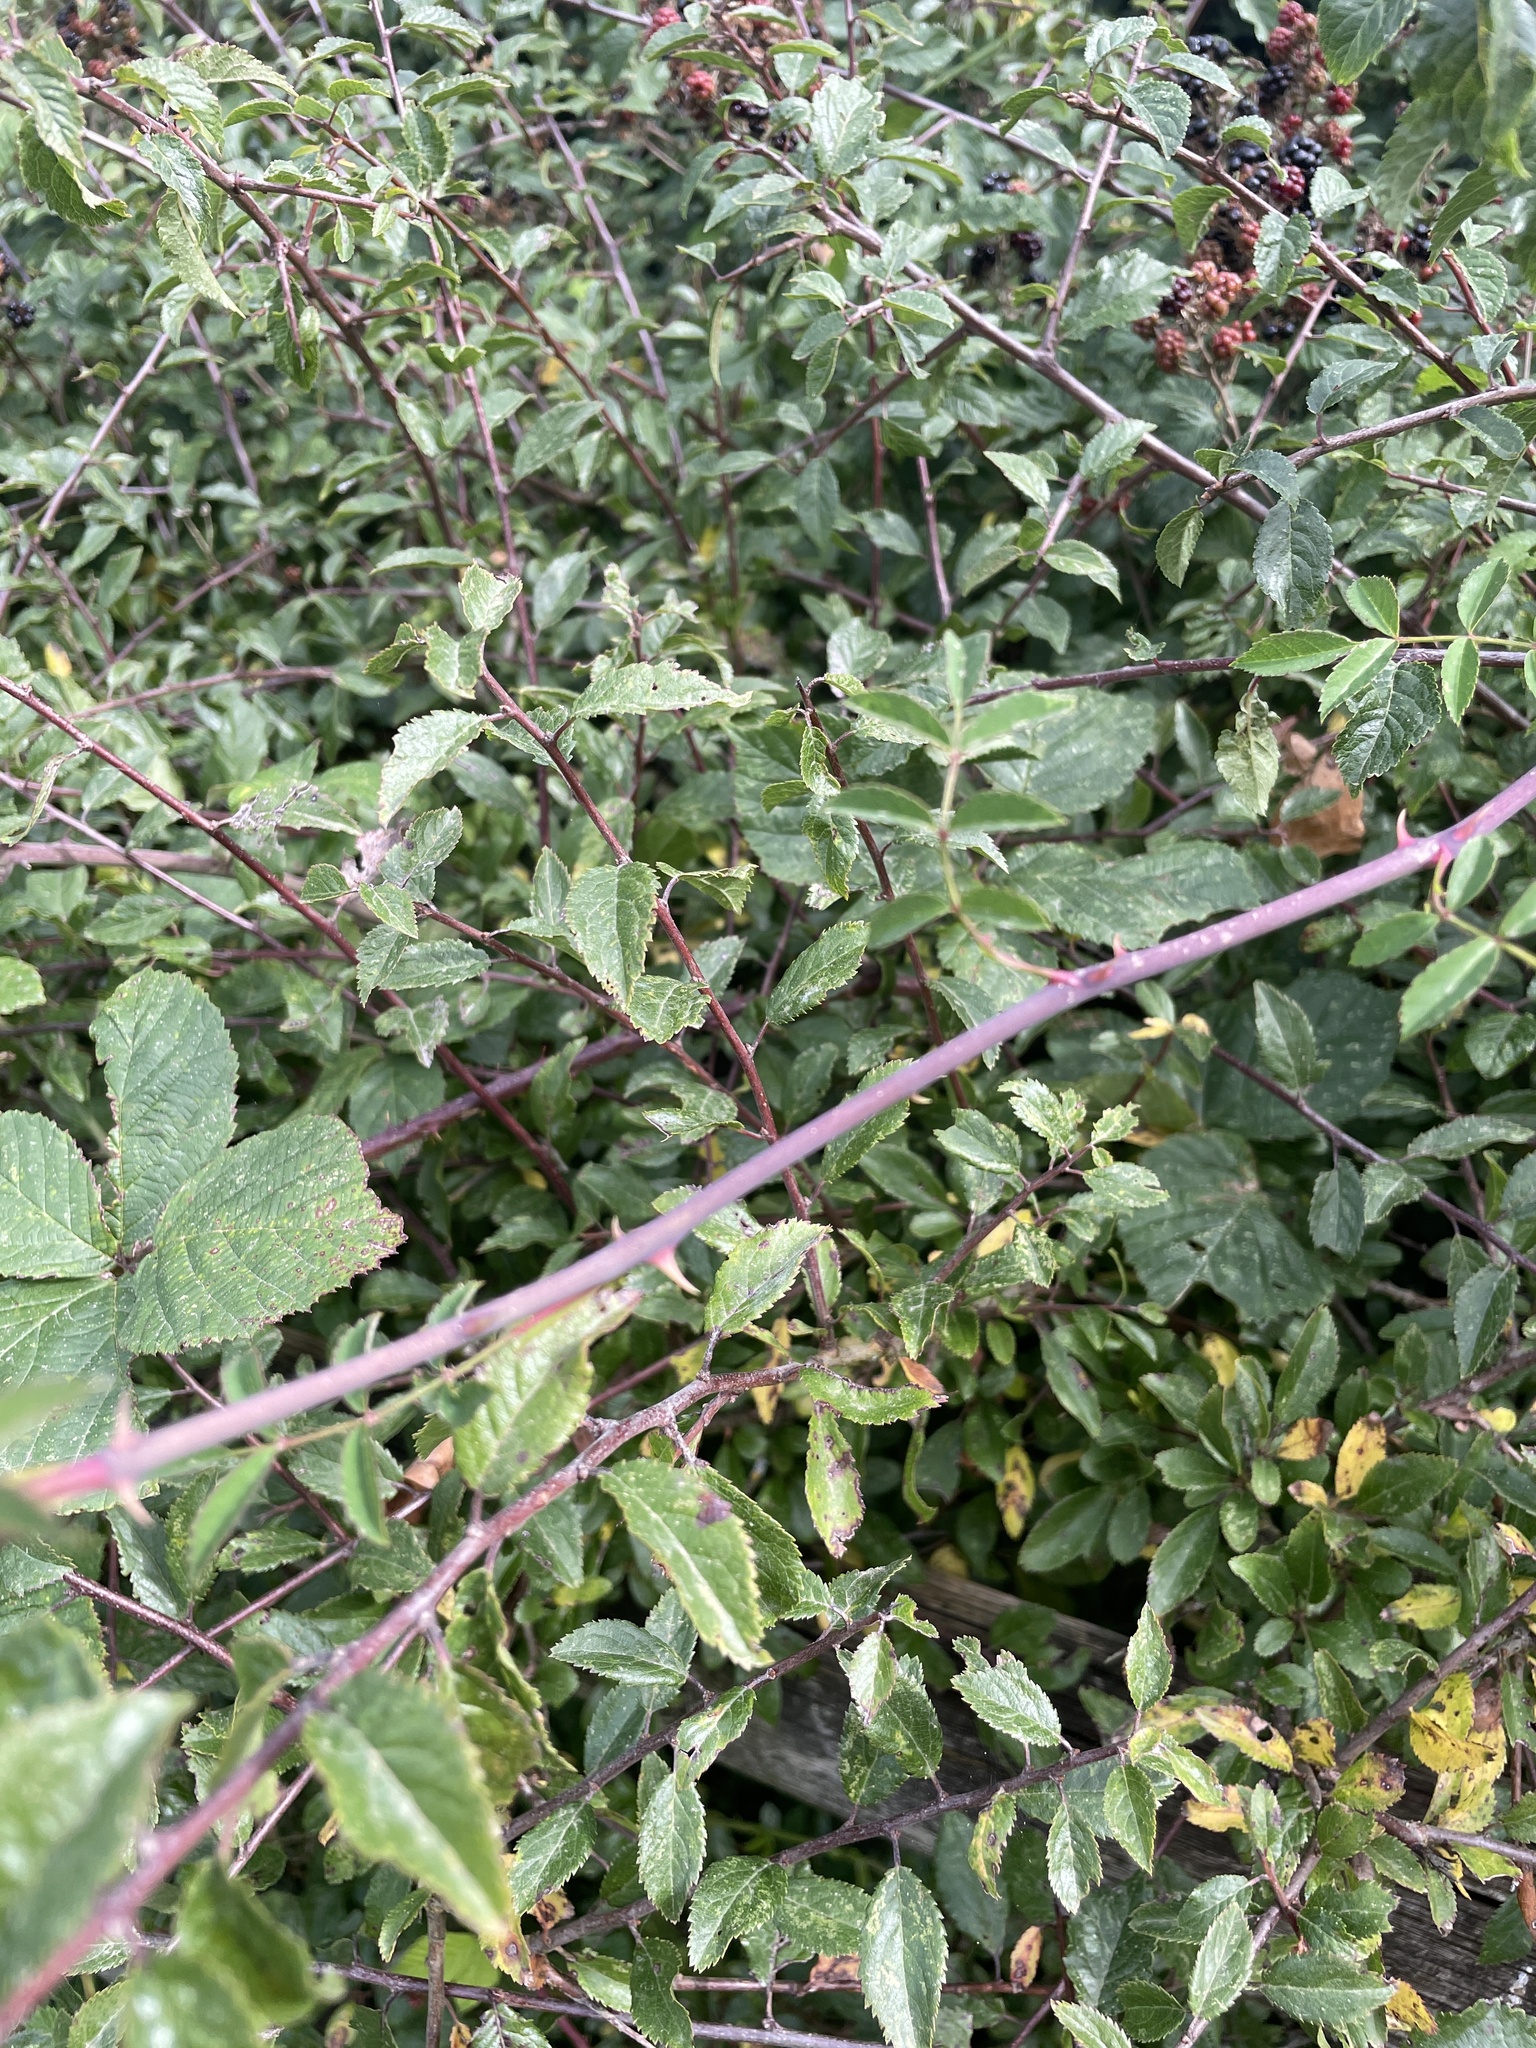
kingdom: Plantae
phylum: Tracheophyta
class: Magnoliopsida
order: Rosales
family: Rosaceae
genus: Prunus
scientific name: Prunus spinosa
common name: Blackthorn
